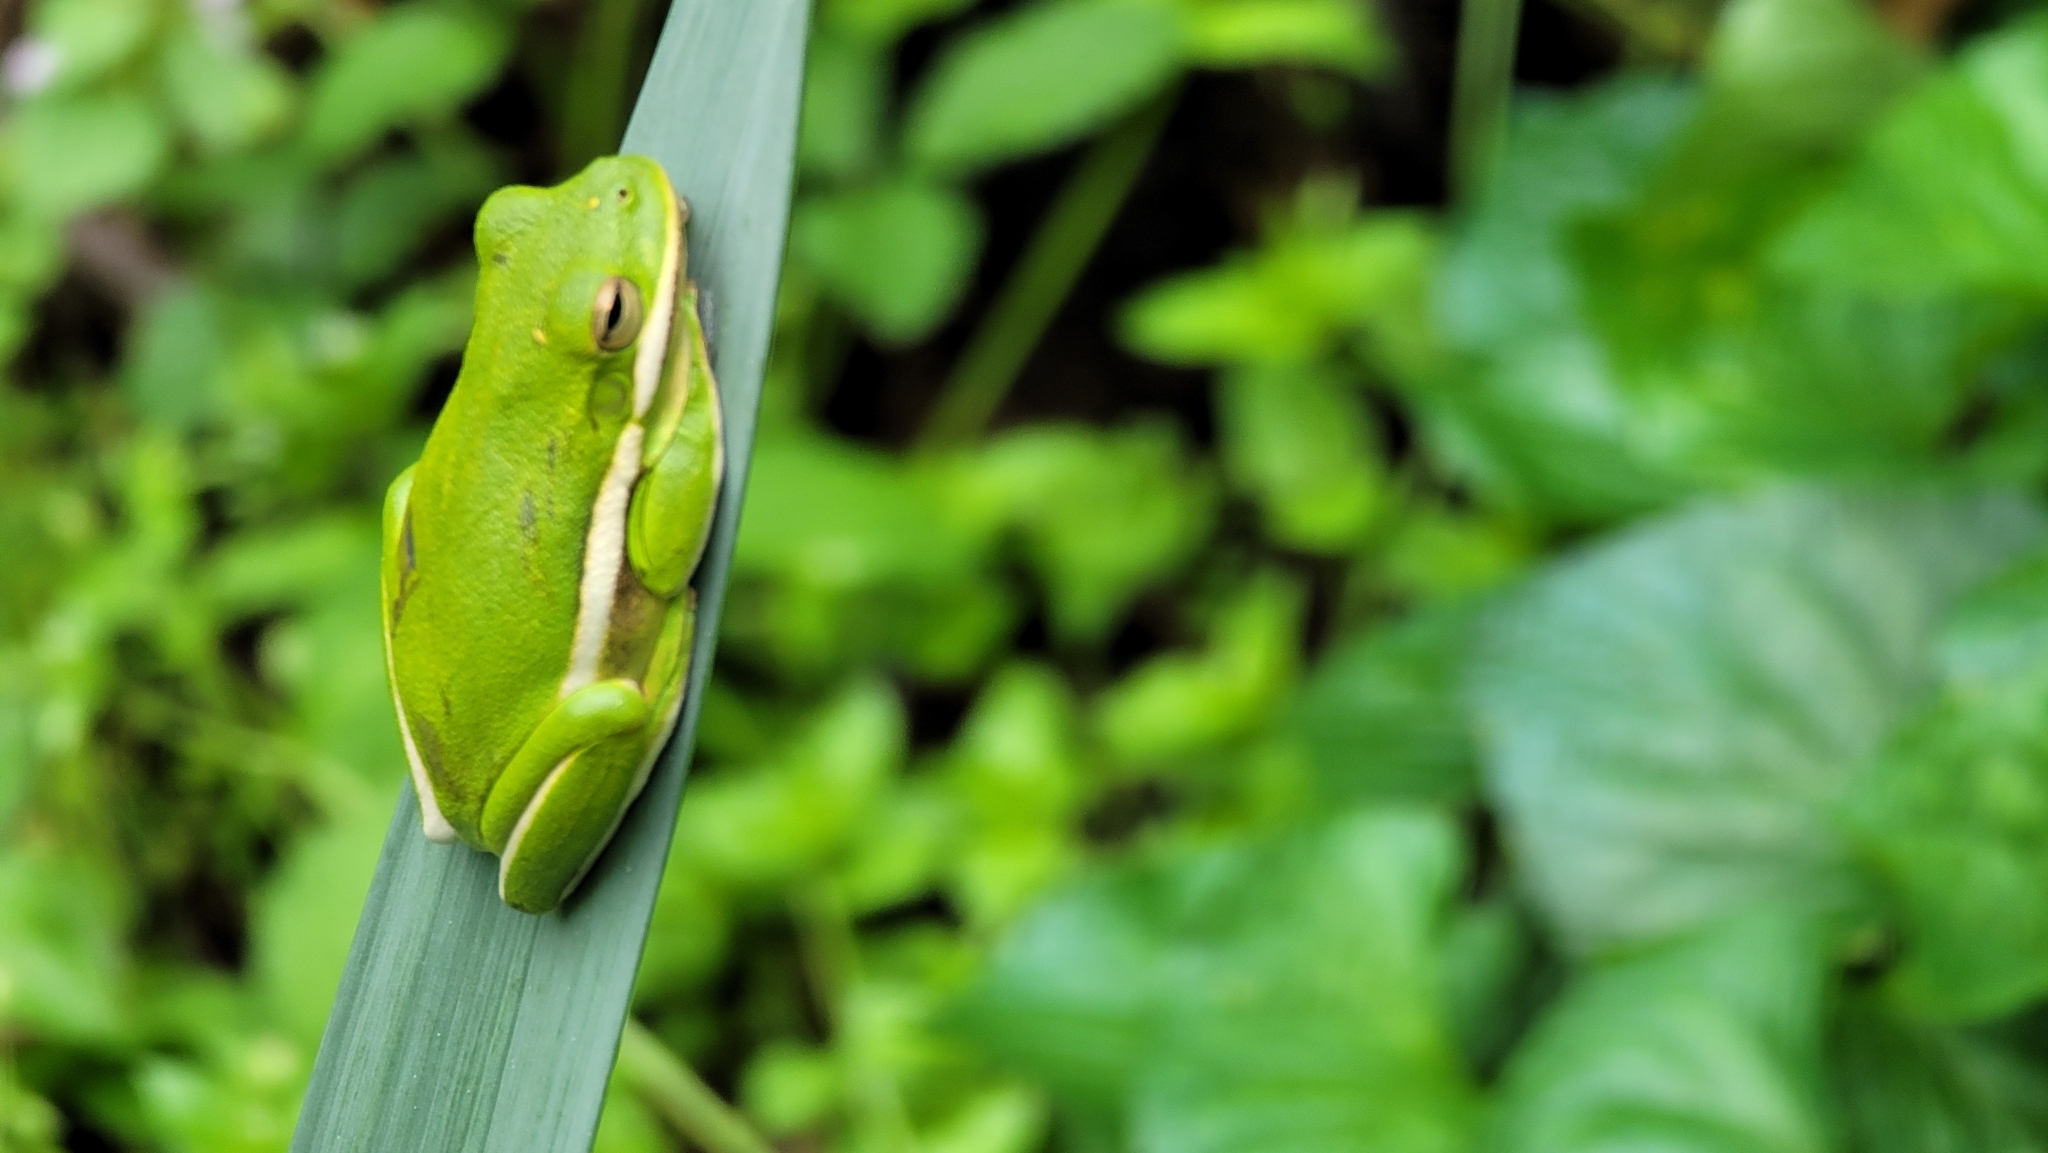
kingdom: Animalia
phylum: Chordata
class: Amphibia
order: Anura
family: Hylidae
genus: Dryophytes
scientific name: Dryophytes cinereus
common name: Green treefrog
